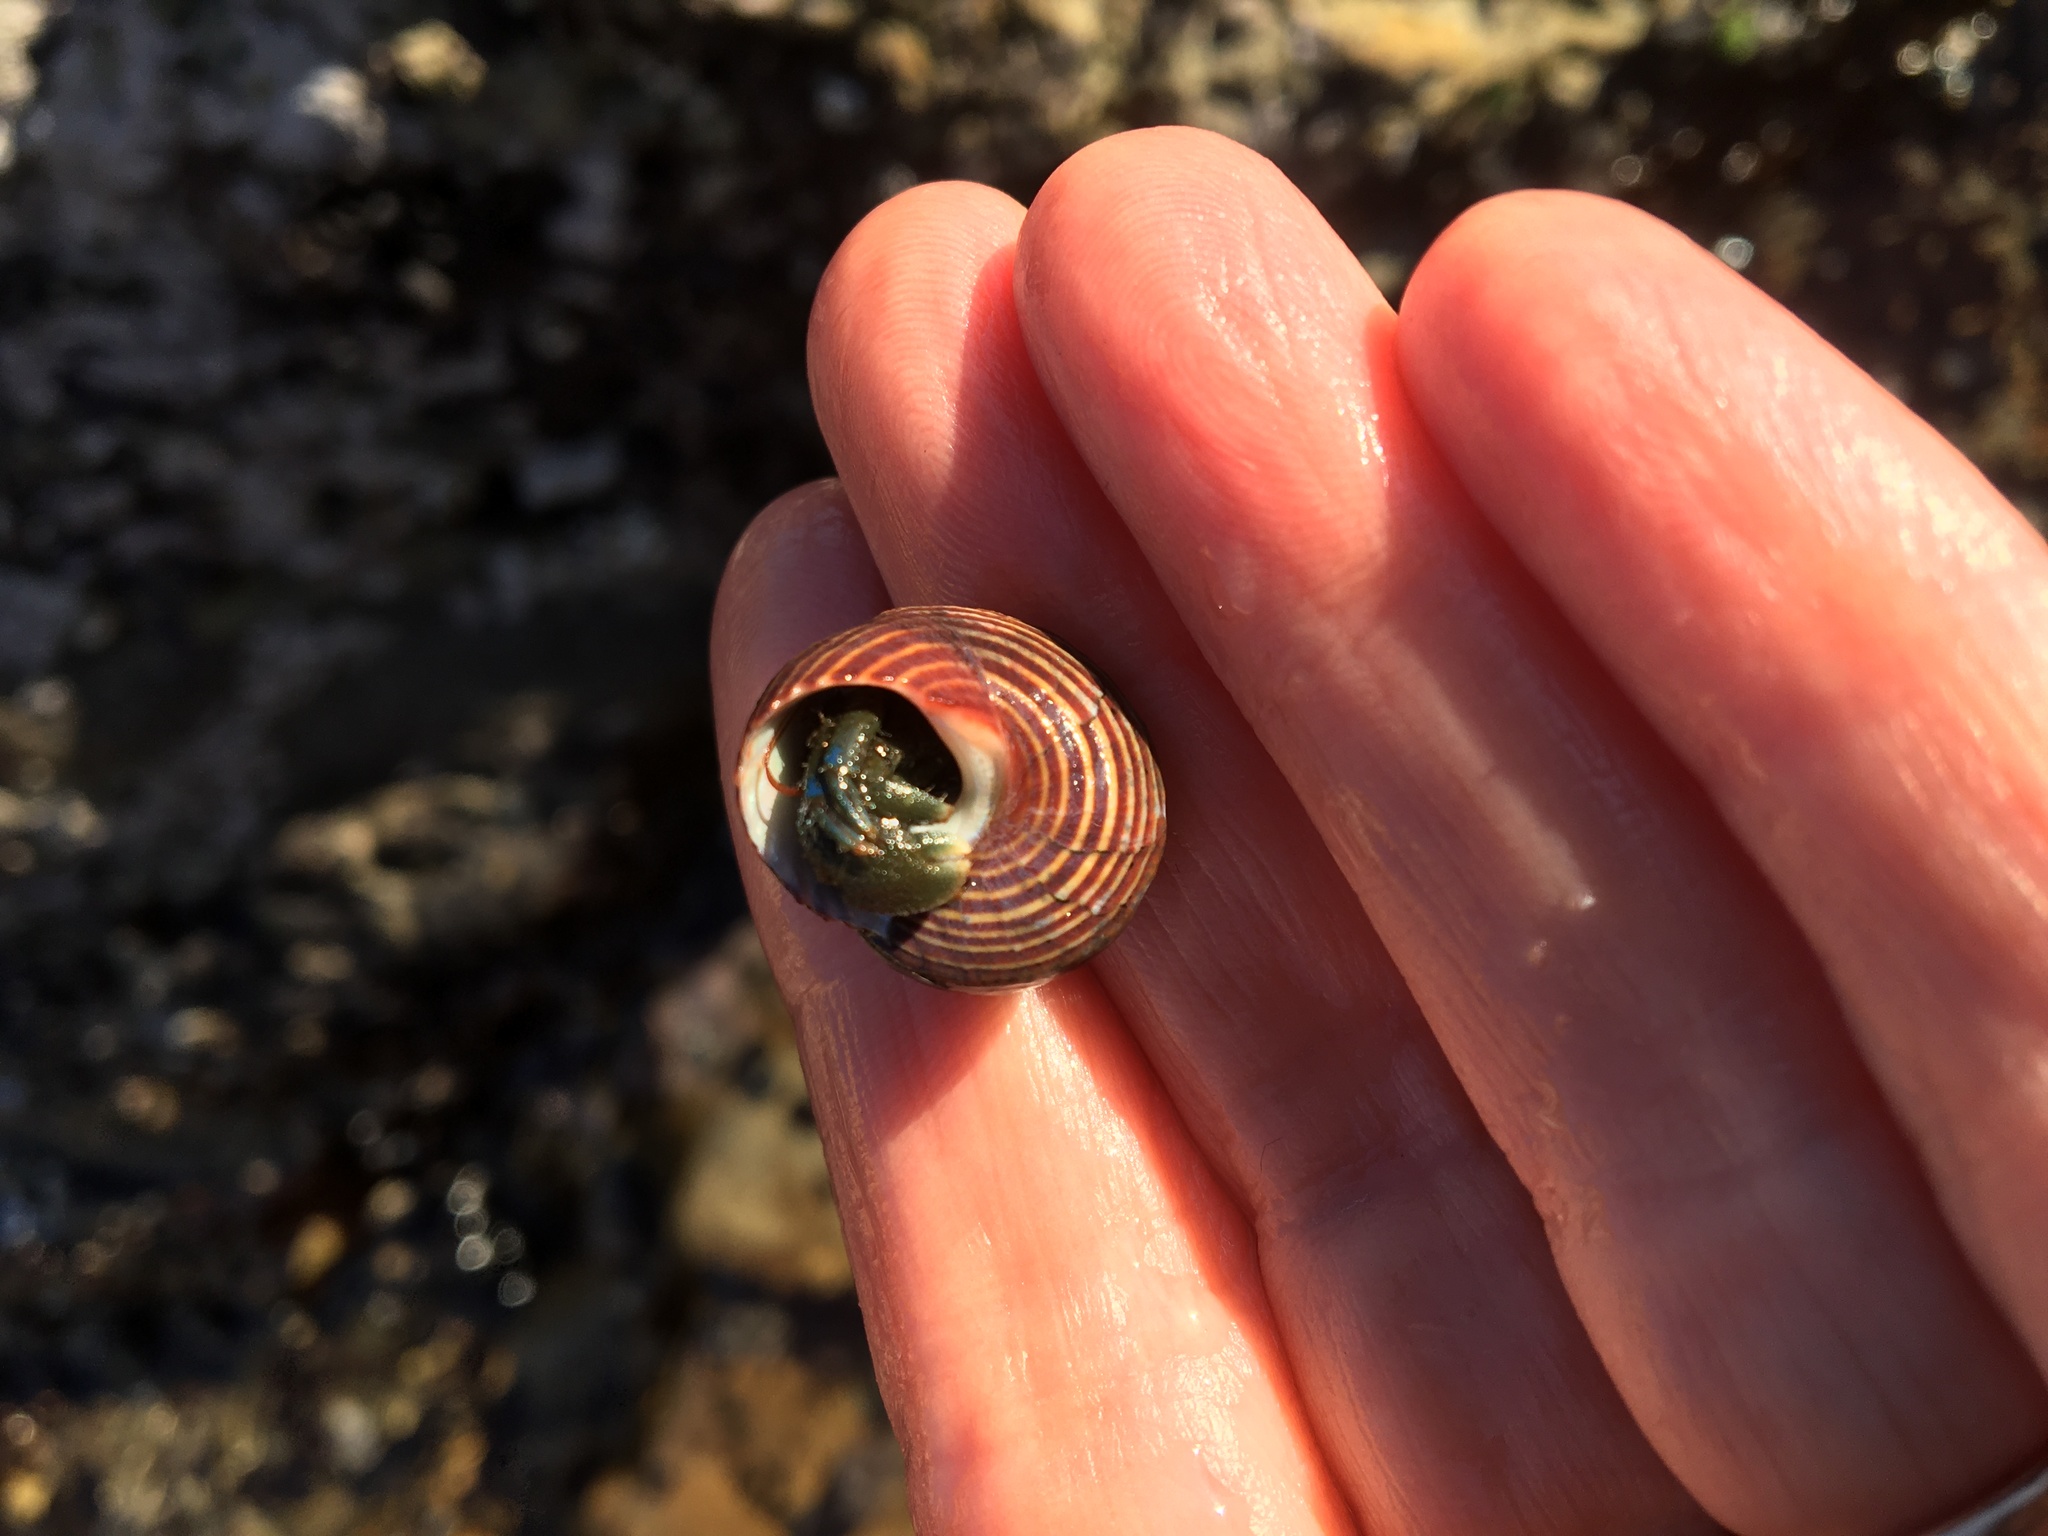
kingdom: Animalia
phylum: Arthropoda
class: Malacostraca
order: Decapoda
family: Paguridae
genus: Pagurus
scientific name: Pagurus samuelis
